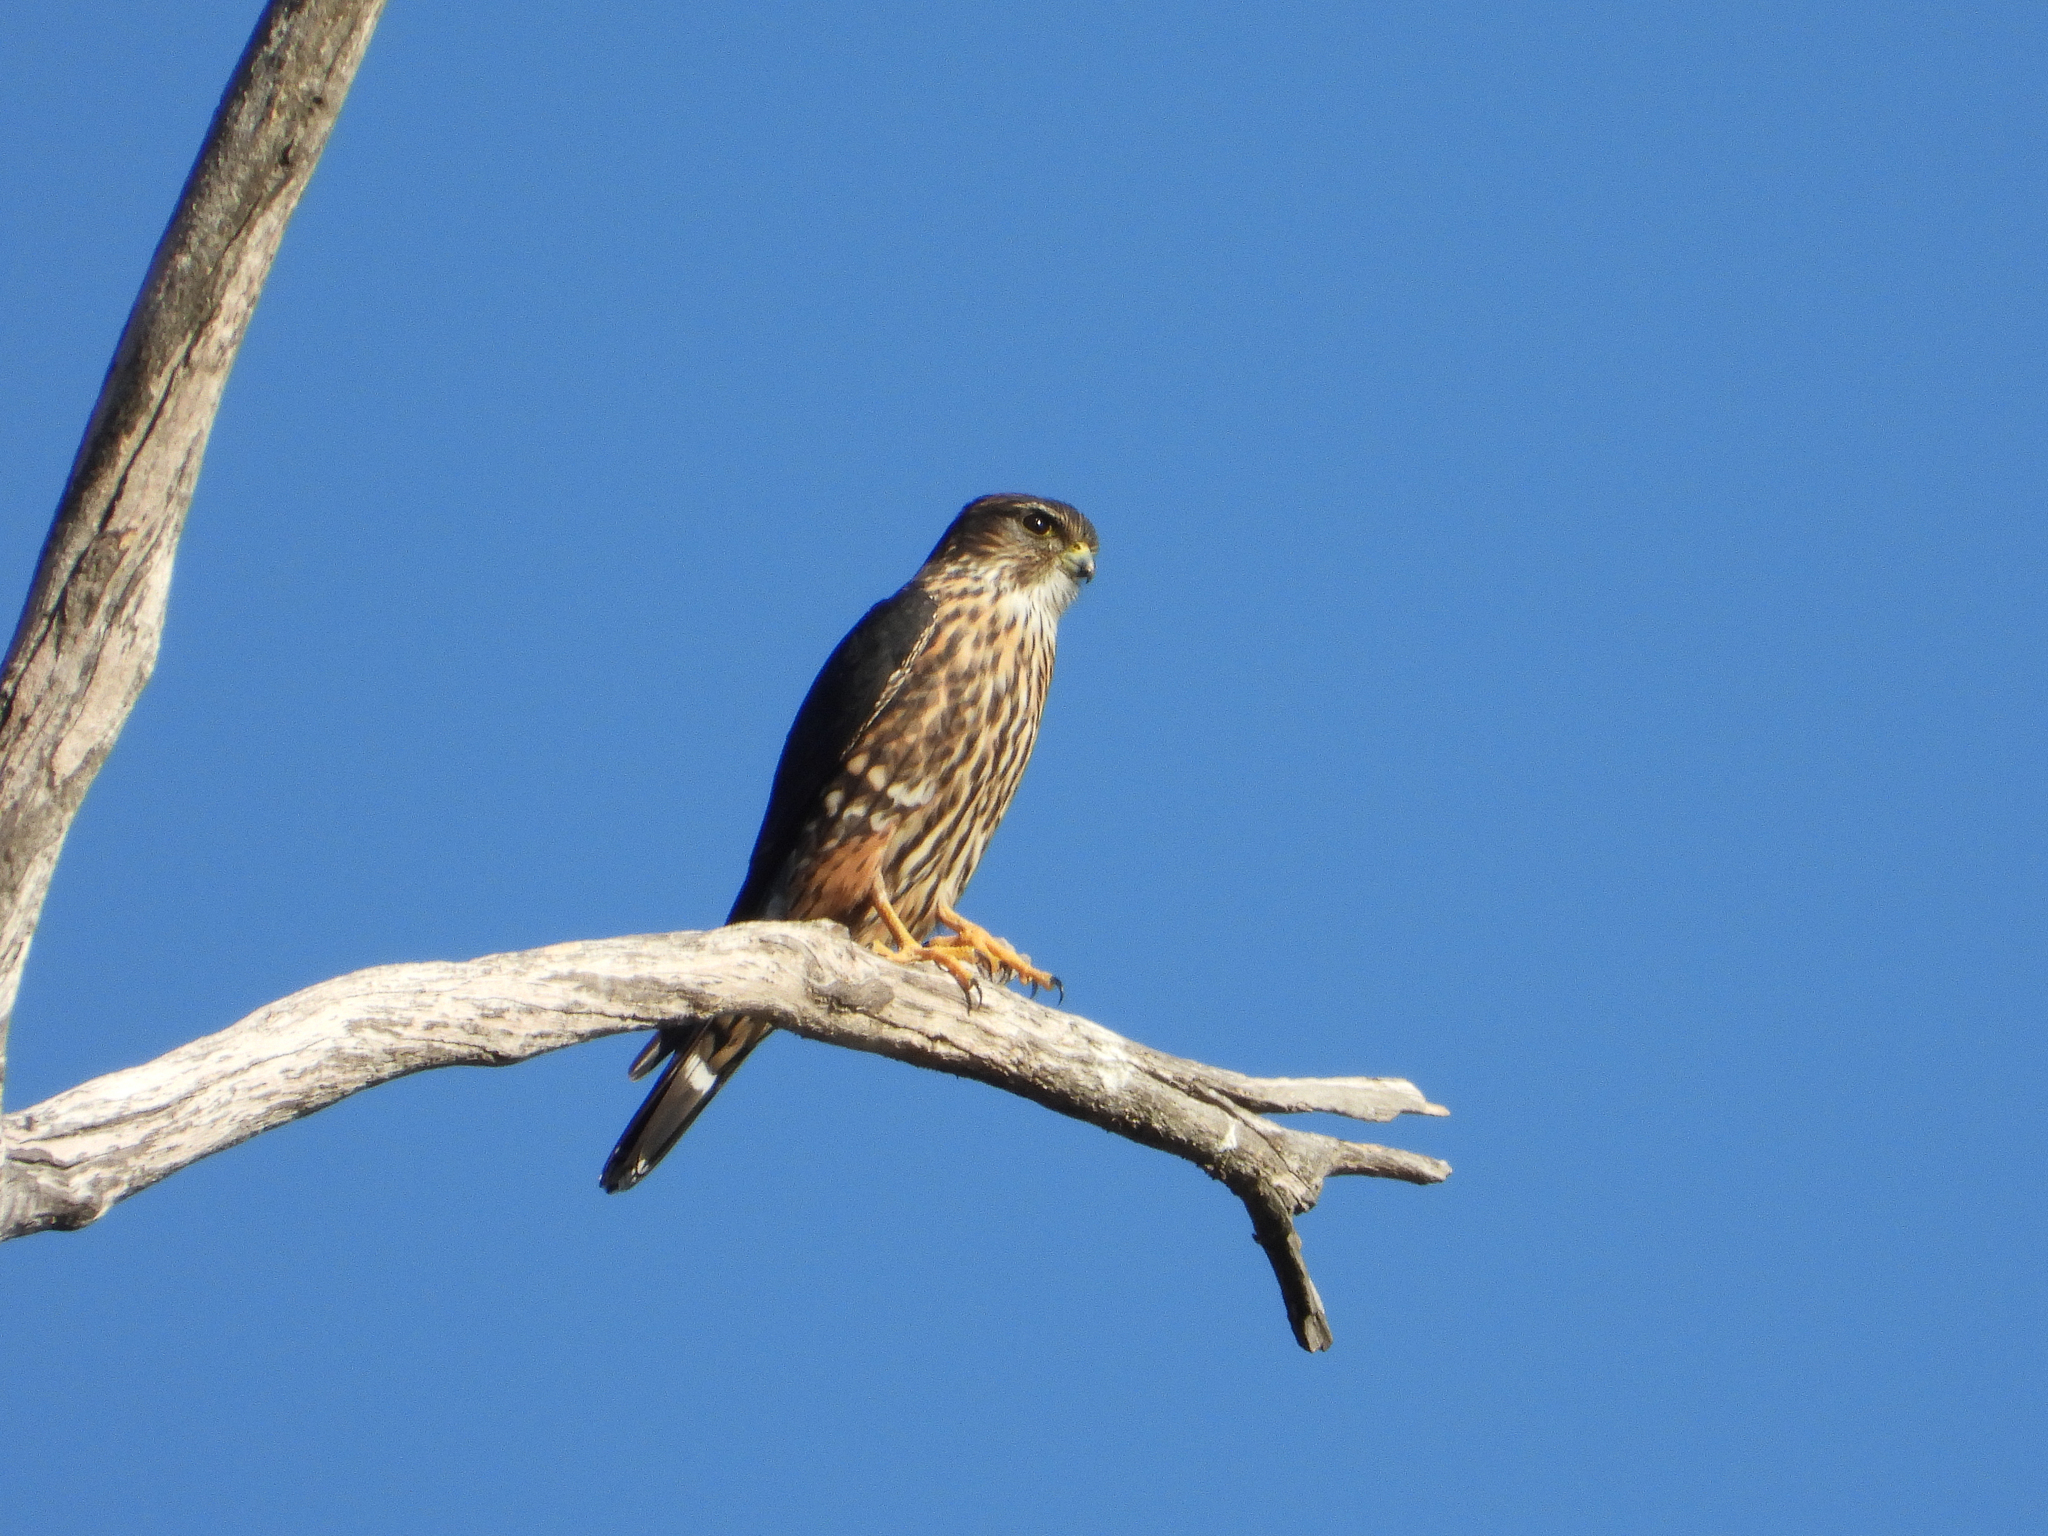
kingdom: Animalia
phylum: Chordata
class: Aves
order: Falconiformes
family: Falconidae
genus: Falco
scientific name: Falco columbarius
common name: Merlin
